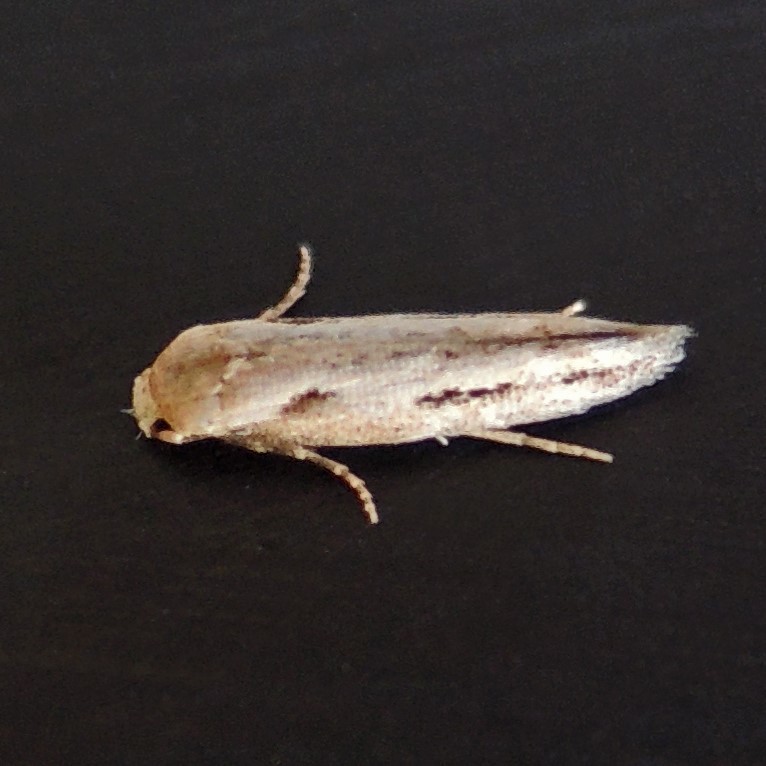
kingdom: Animalia
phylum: Arthropoda
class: Insecta
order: Lepidoptera
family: Momphidae
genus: Mompha
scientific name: Mompha brevivittella
